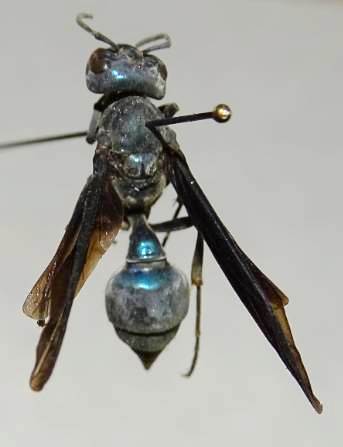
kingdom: Animalia
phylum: Arthropoda
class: Insecta
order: Hymenoptera
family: Vespidae
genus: Synoeca
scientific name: Synoeca septentrionalis
